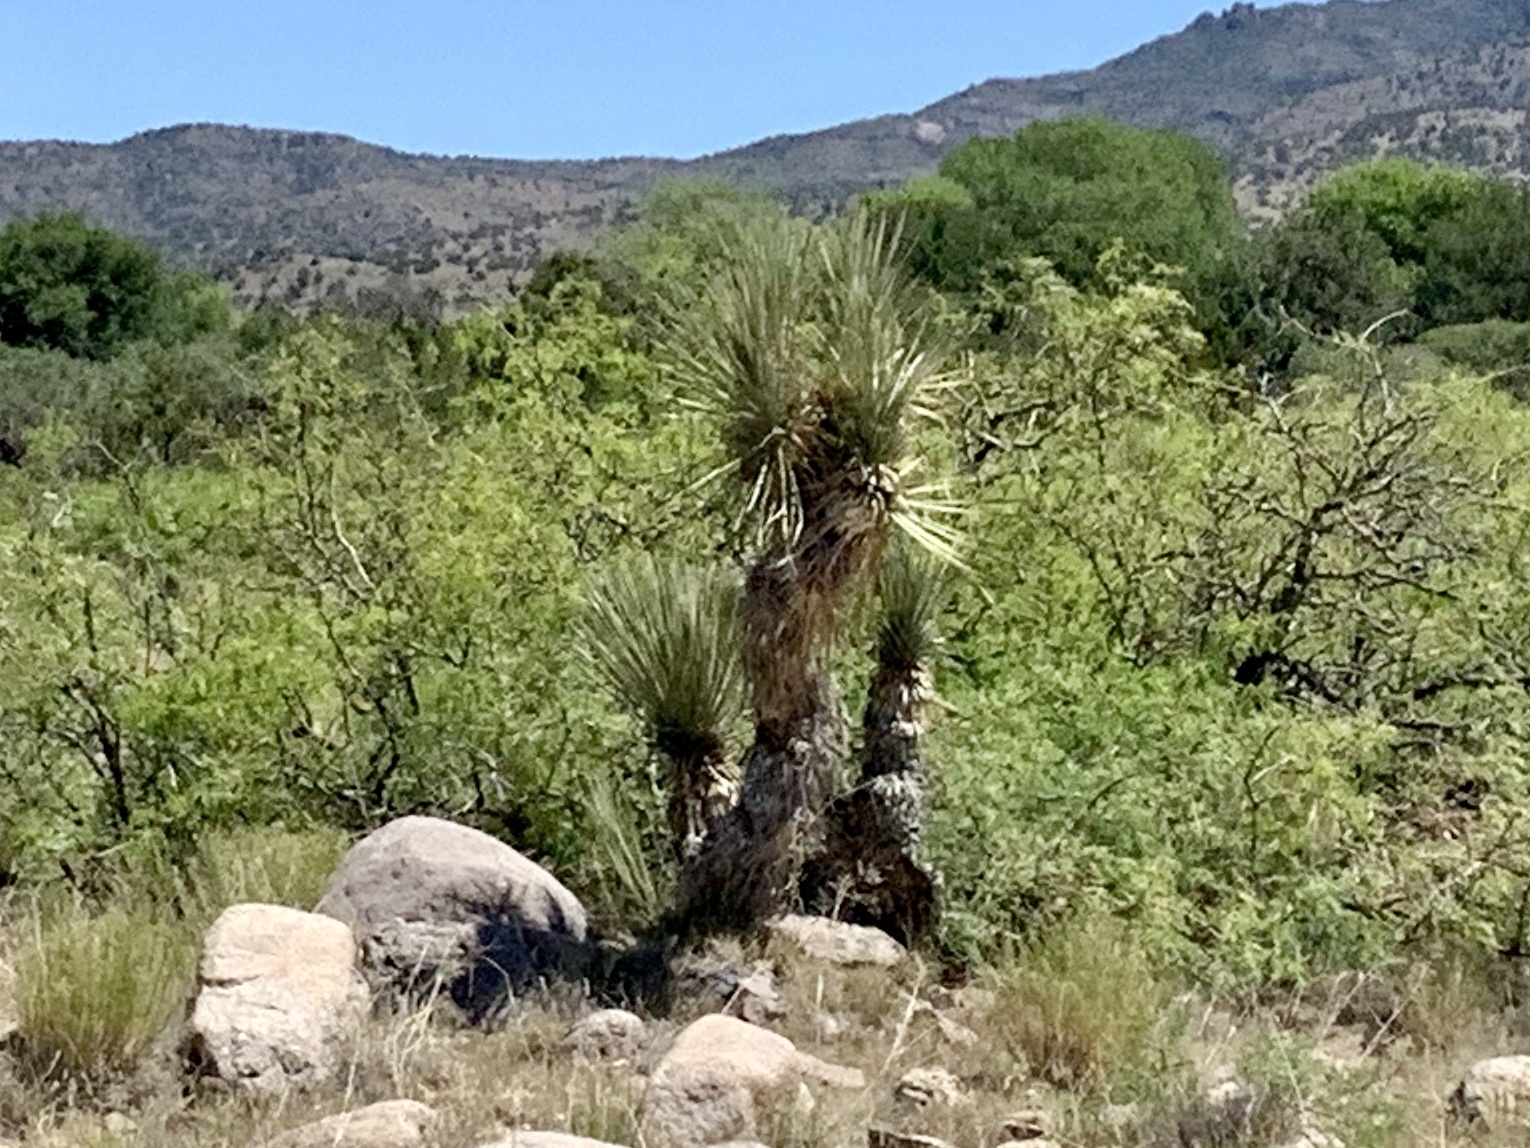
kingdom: Plantae
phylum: Tracheophyta
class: Liliopsida
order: Asparagales
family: Asparagaceae
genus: Yucca
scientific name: Yucca elata
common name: Palmella
